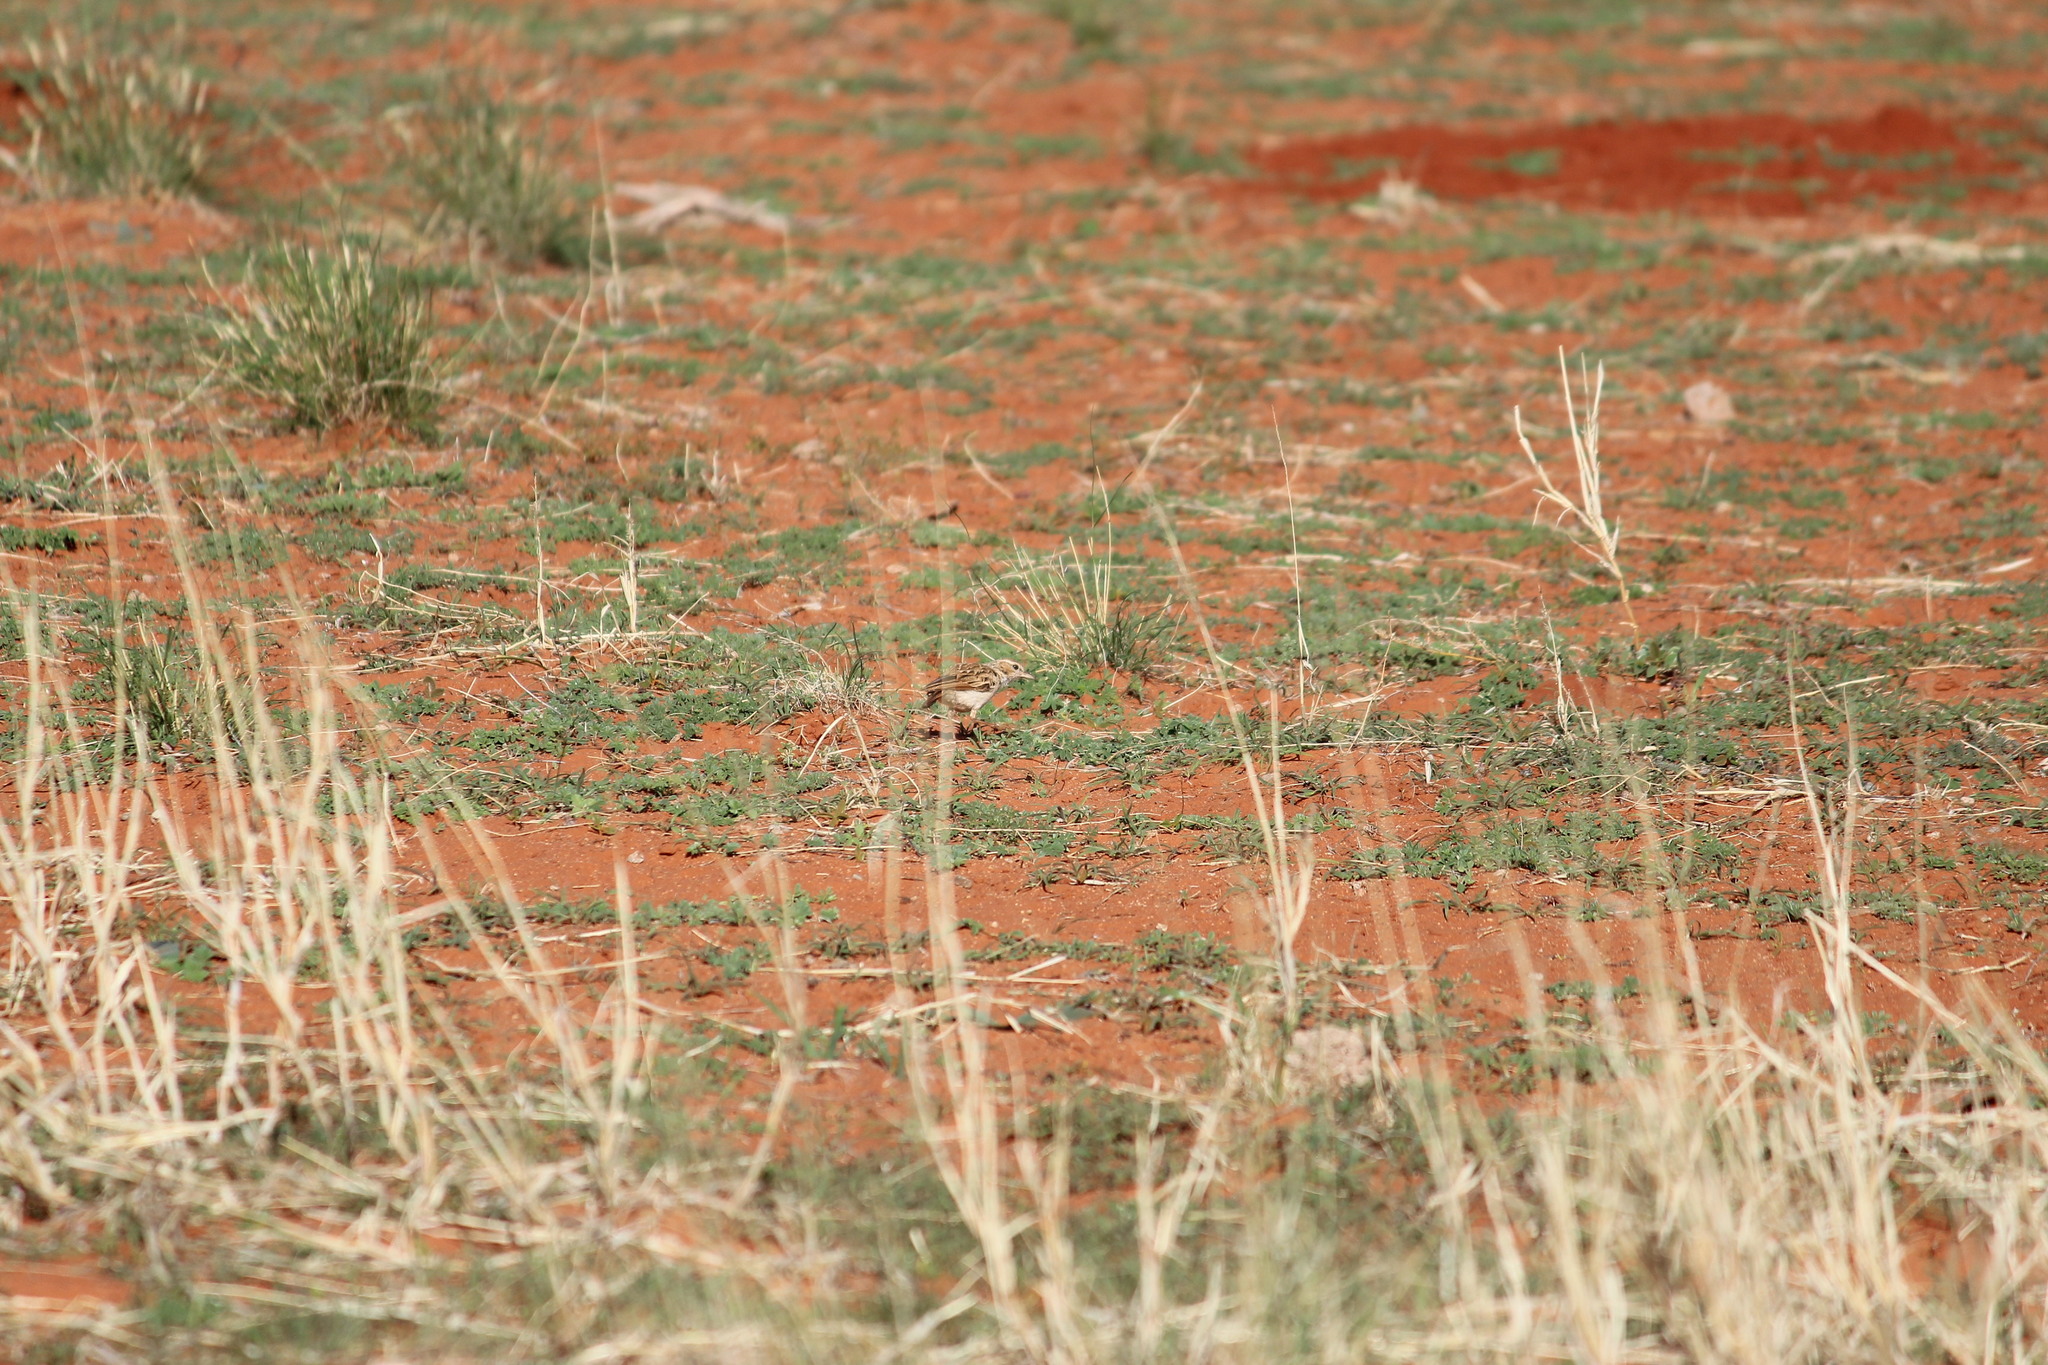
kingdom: Animalia
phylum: Chordata
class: Aves
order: Passeriformes
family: Alaudidae
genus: Spizocorys
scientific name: Spizocorys starki
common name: Stark's lark
